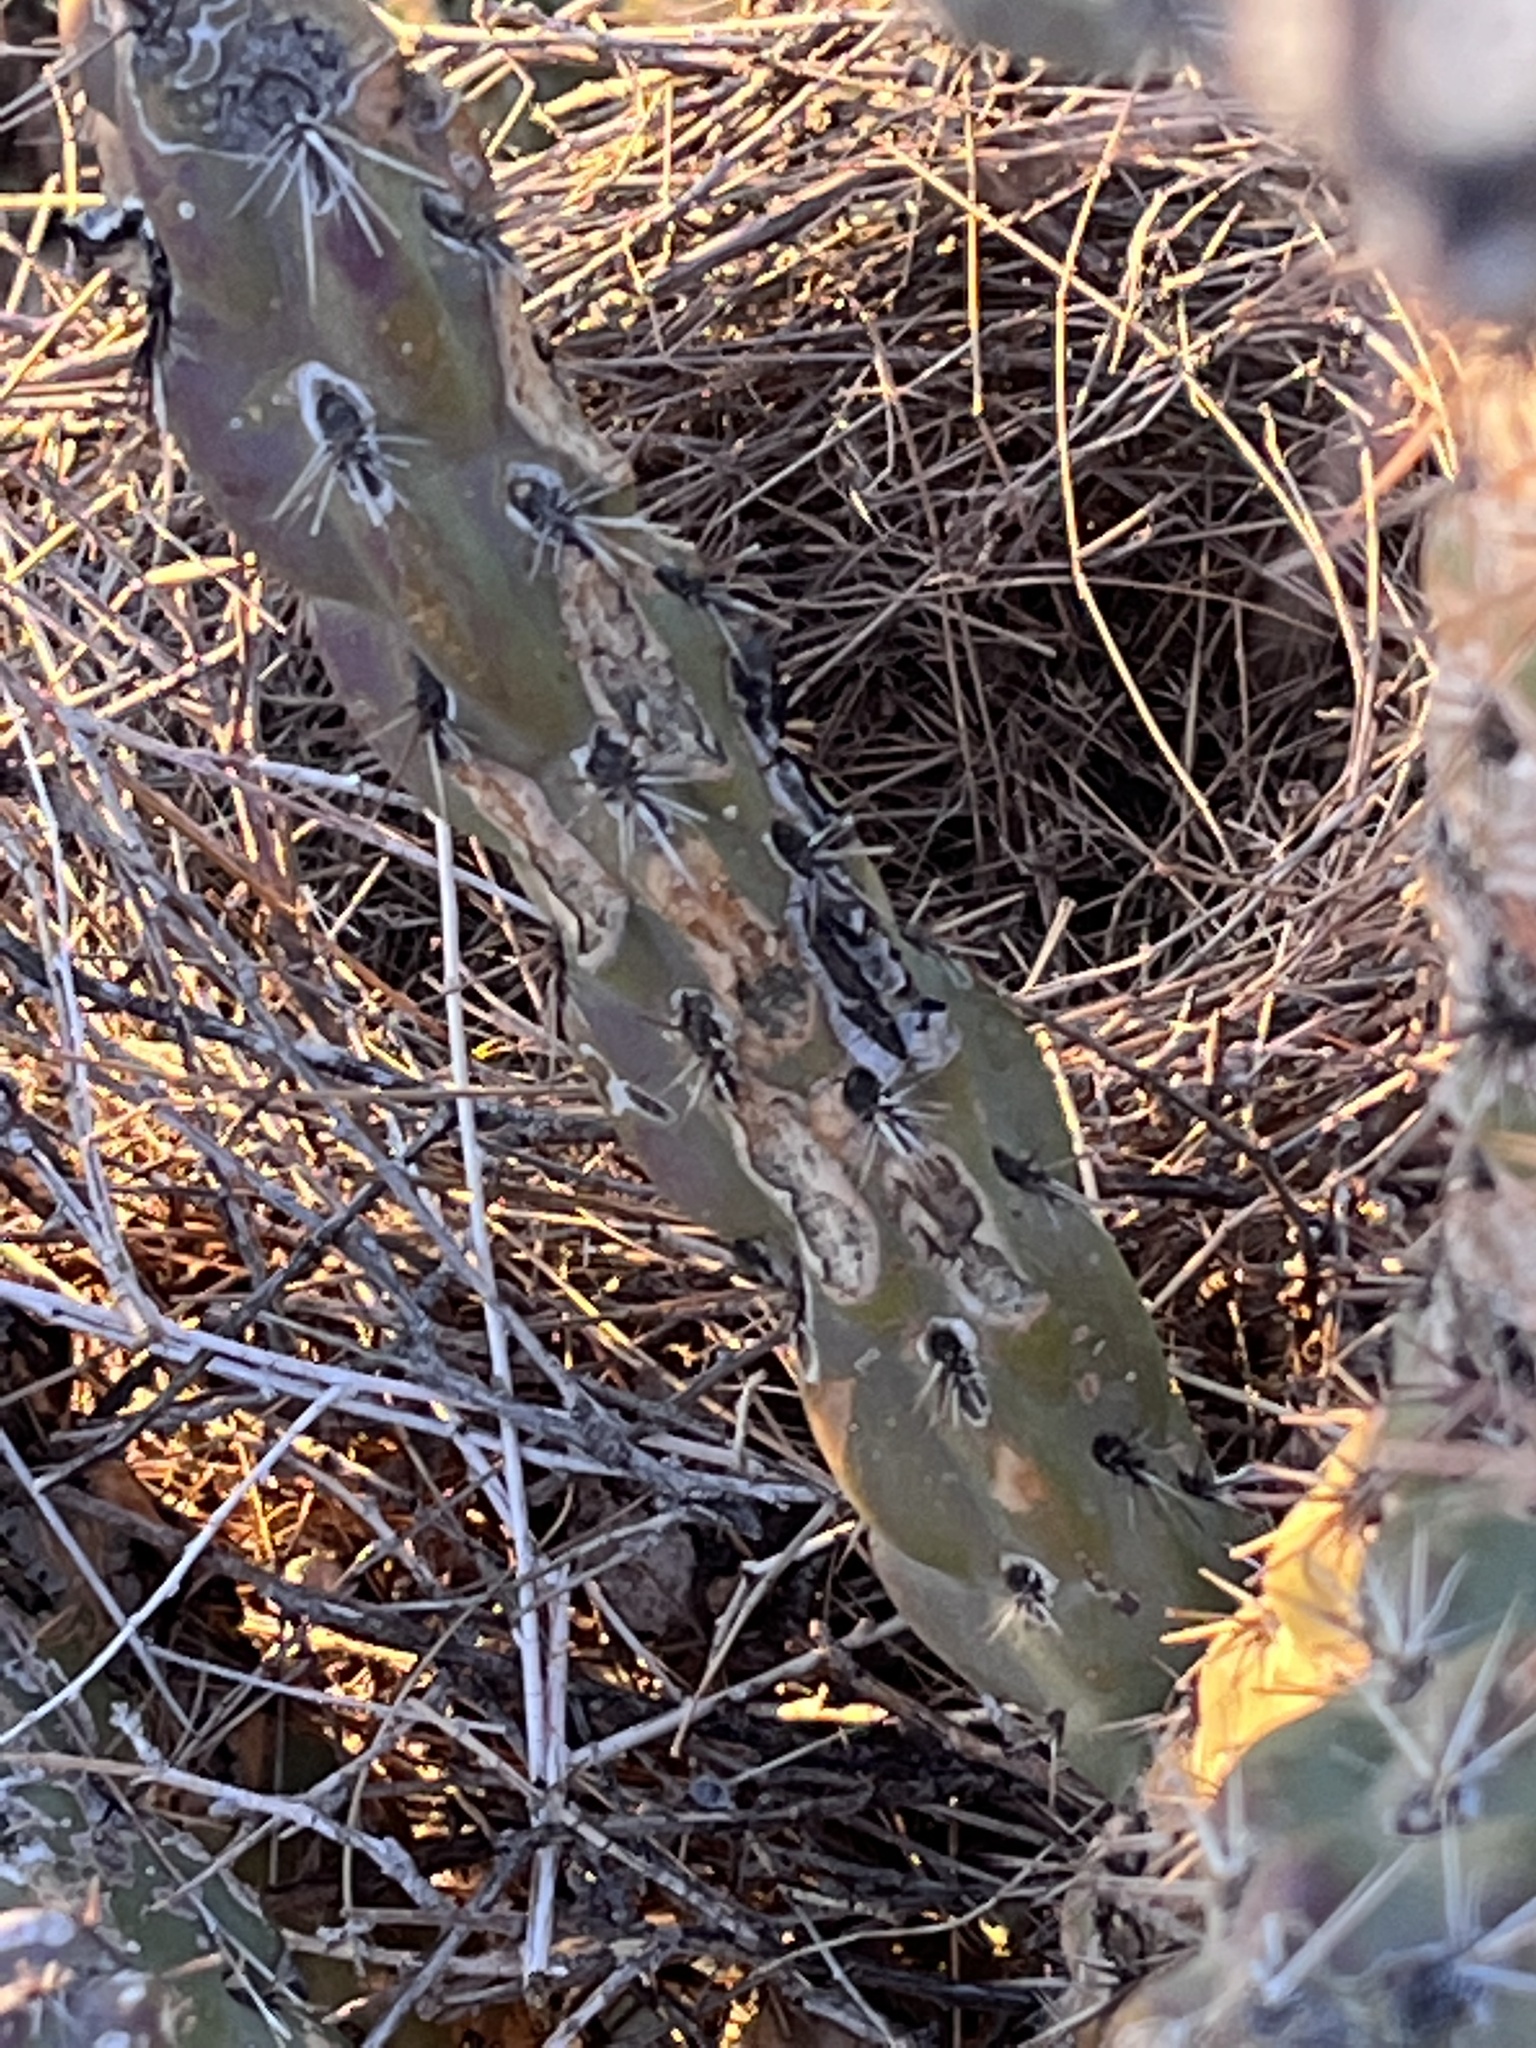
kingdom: Plantae
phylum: Tracheophyta
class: Magnoliopsida
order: Caryophyllales
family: Cactaceae
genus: Cylindropuntia
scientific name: Cylindropuntia imbricata
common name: Candelabrum cactus
